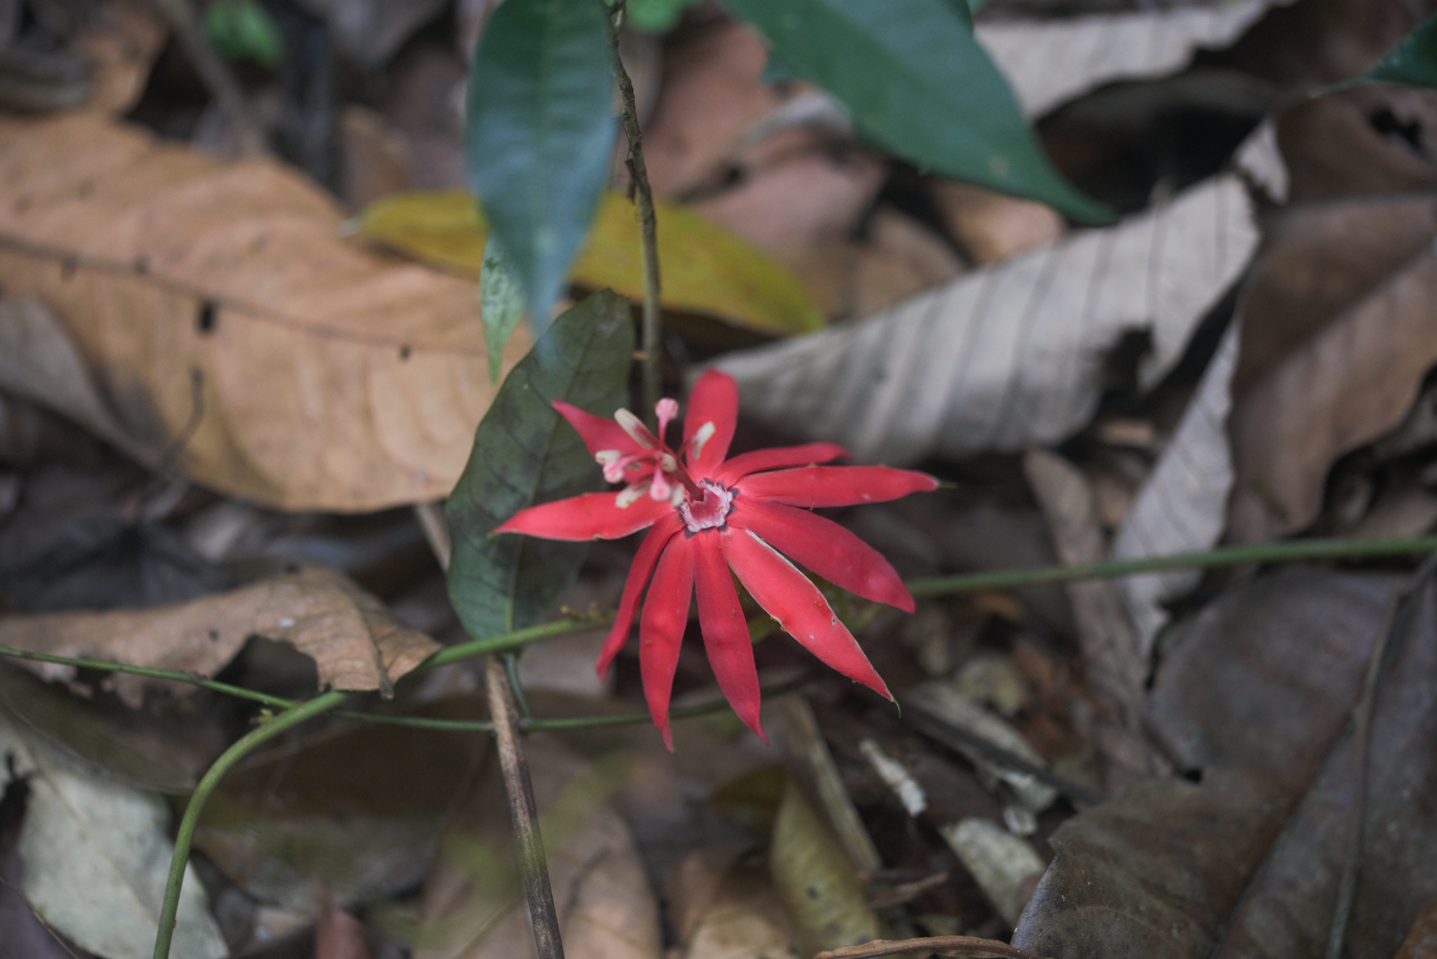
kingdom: Plantae
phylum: Tracheophyta
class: Magnoliopsida
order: Malpighiales
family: Passifloraceae
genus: Passiflora
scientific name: Passiflora glandulosa
